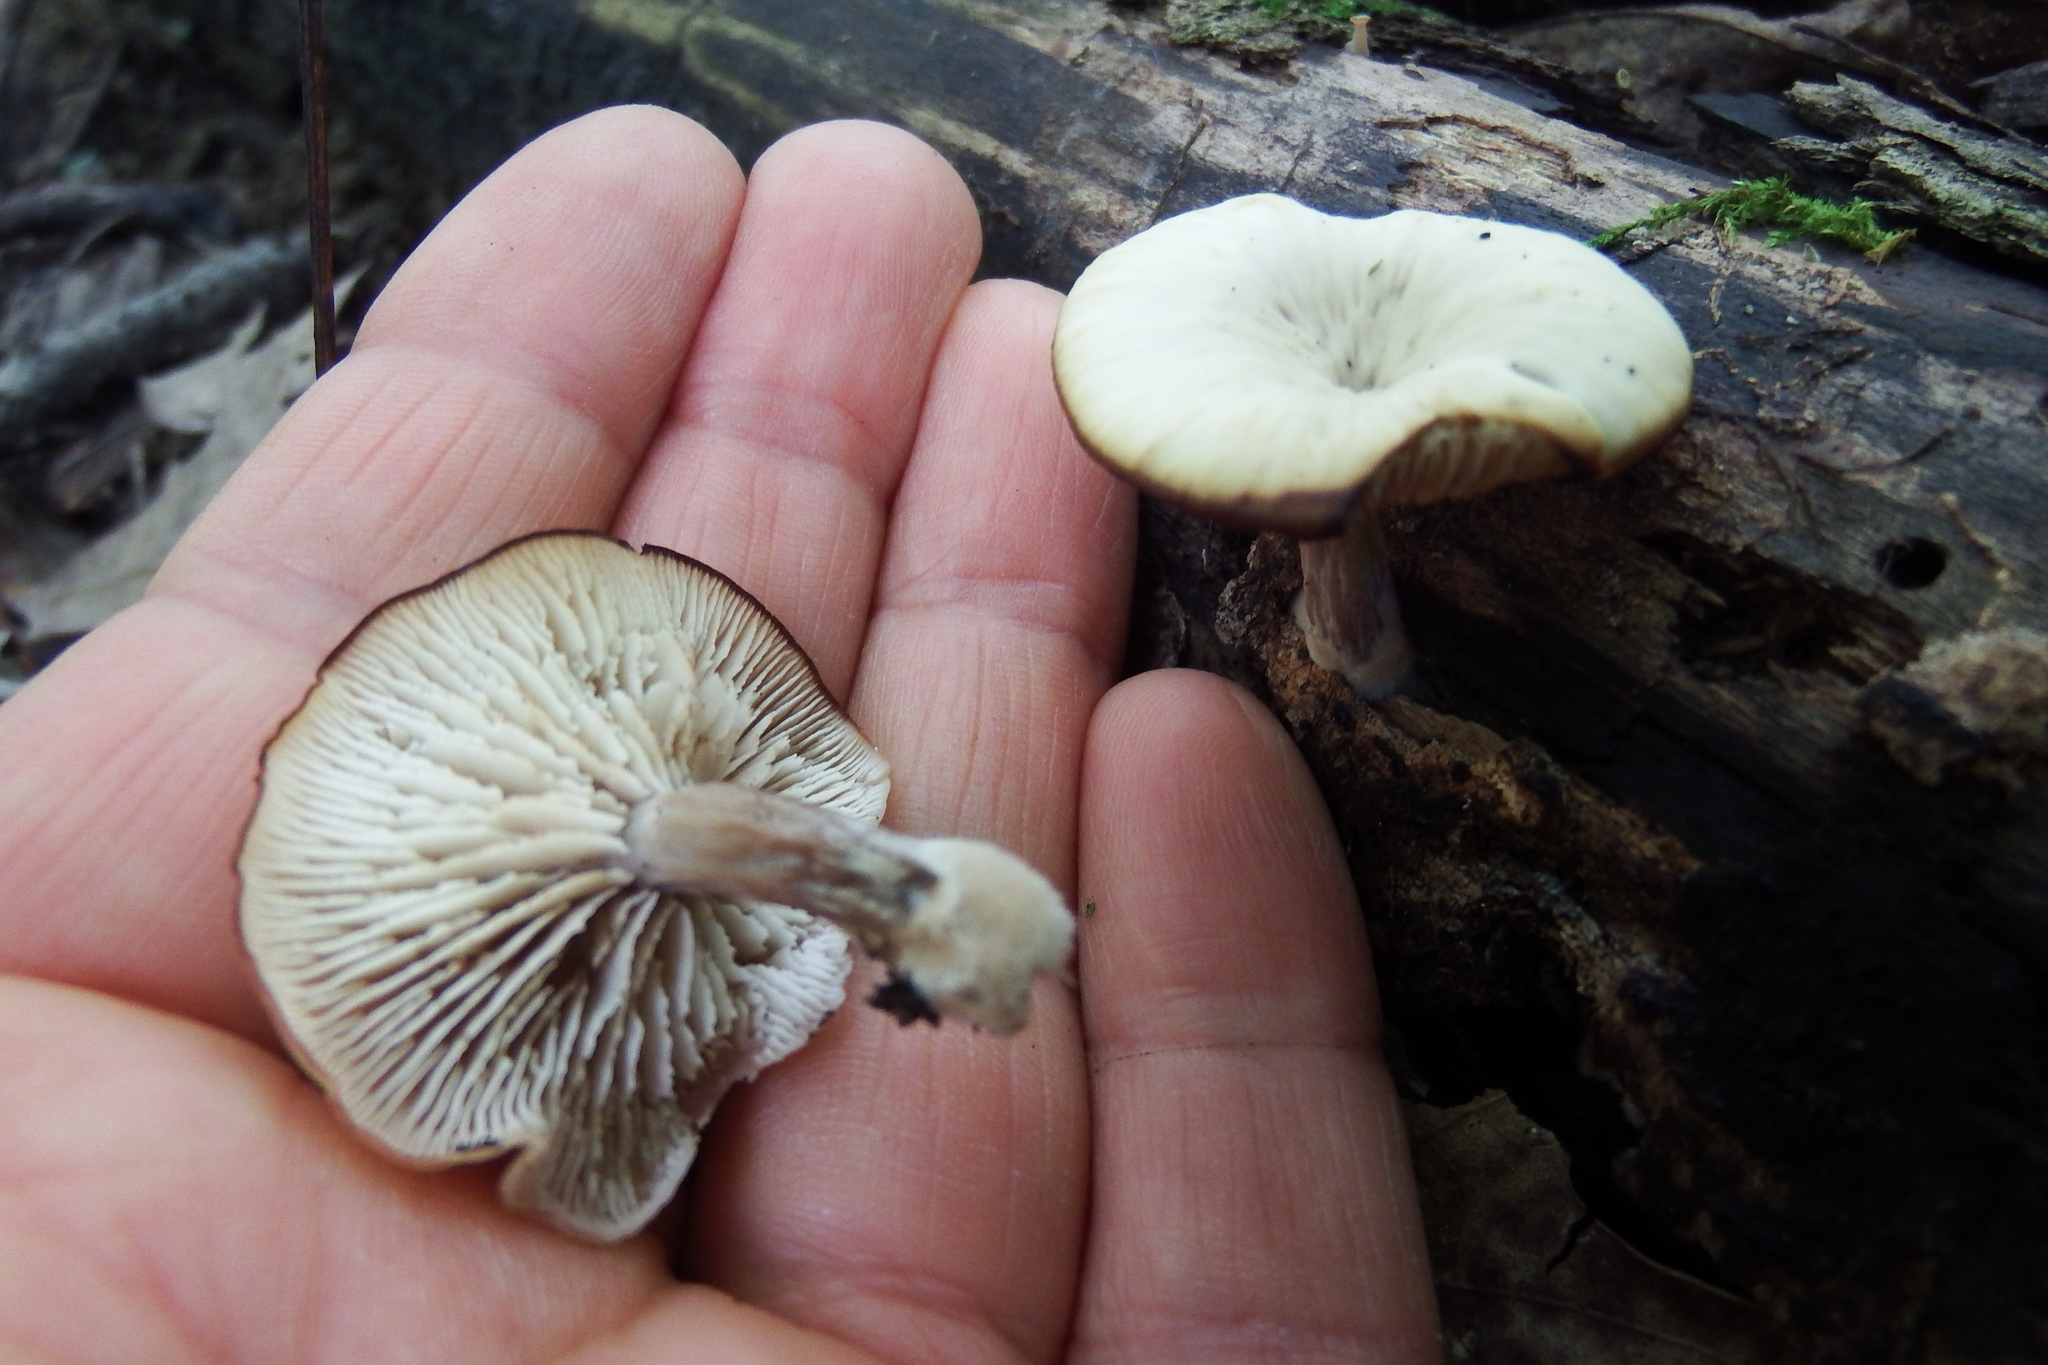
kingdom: Fungi
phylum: Basidiomycota
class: Agaricomycetes
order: Russulales
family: Auriscalpiaceae
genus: Lentinellus
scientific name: Lentinellus micheneri
